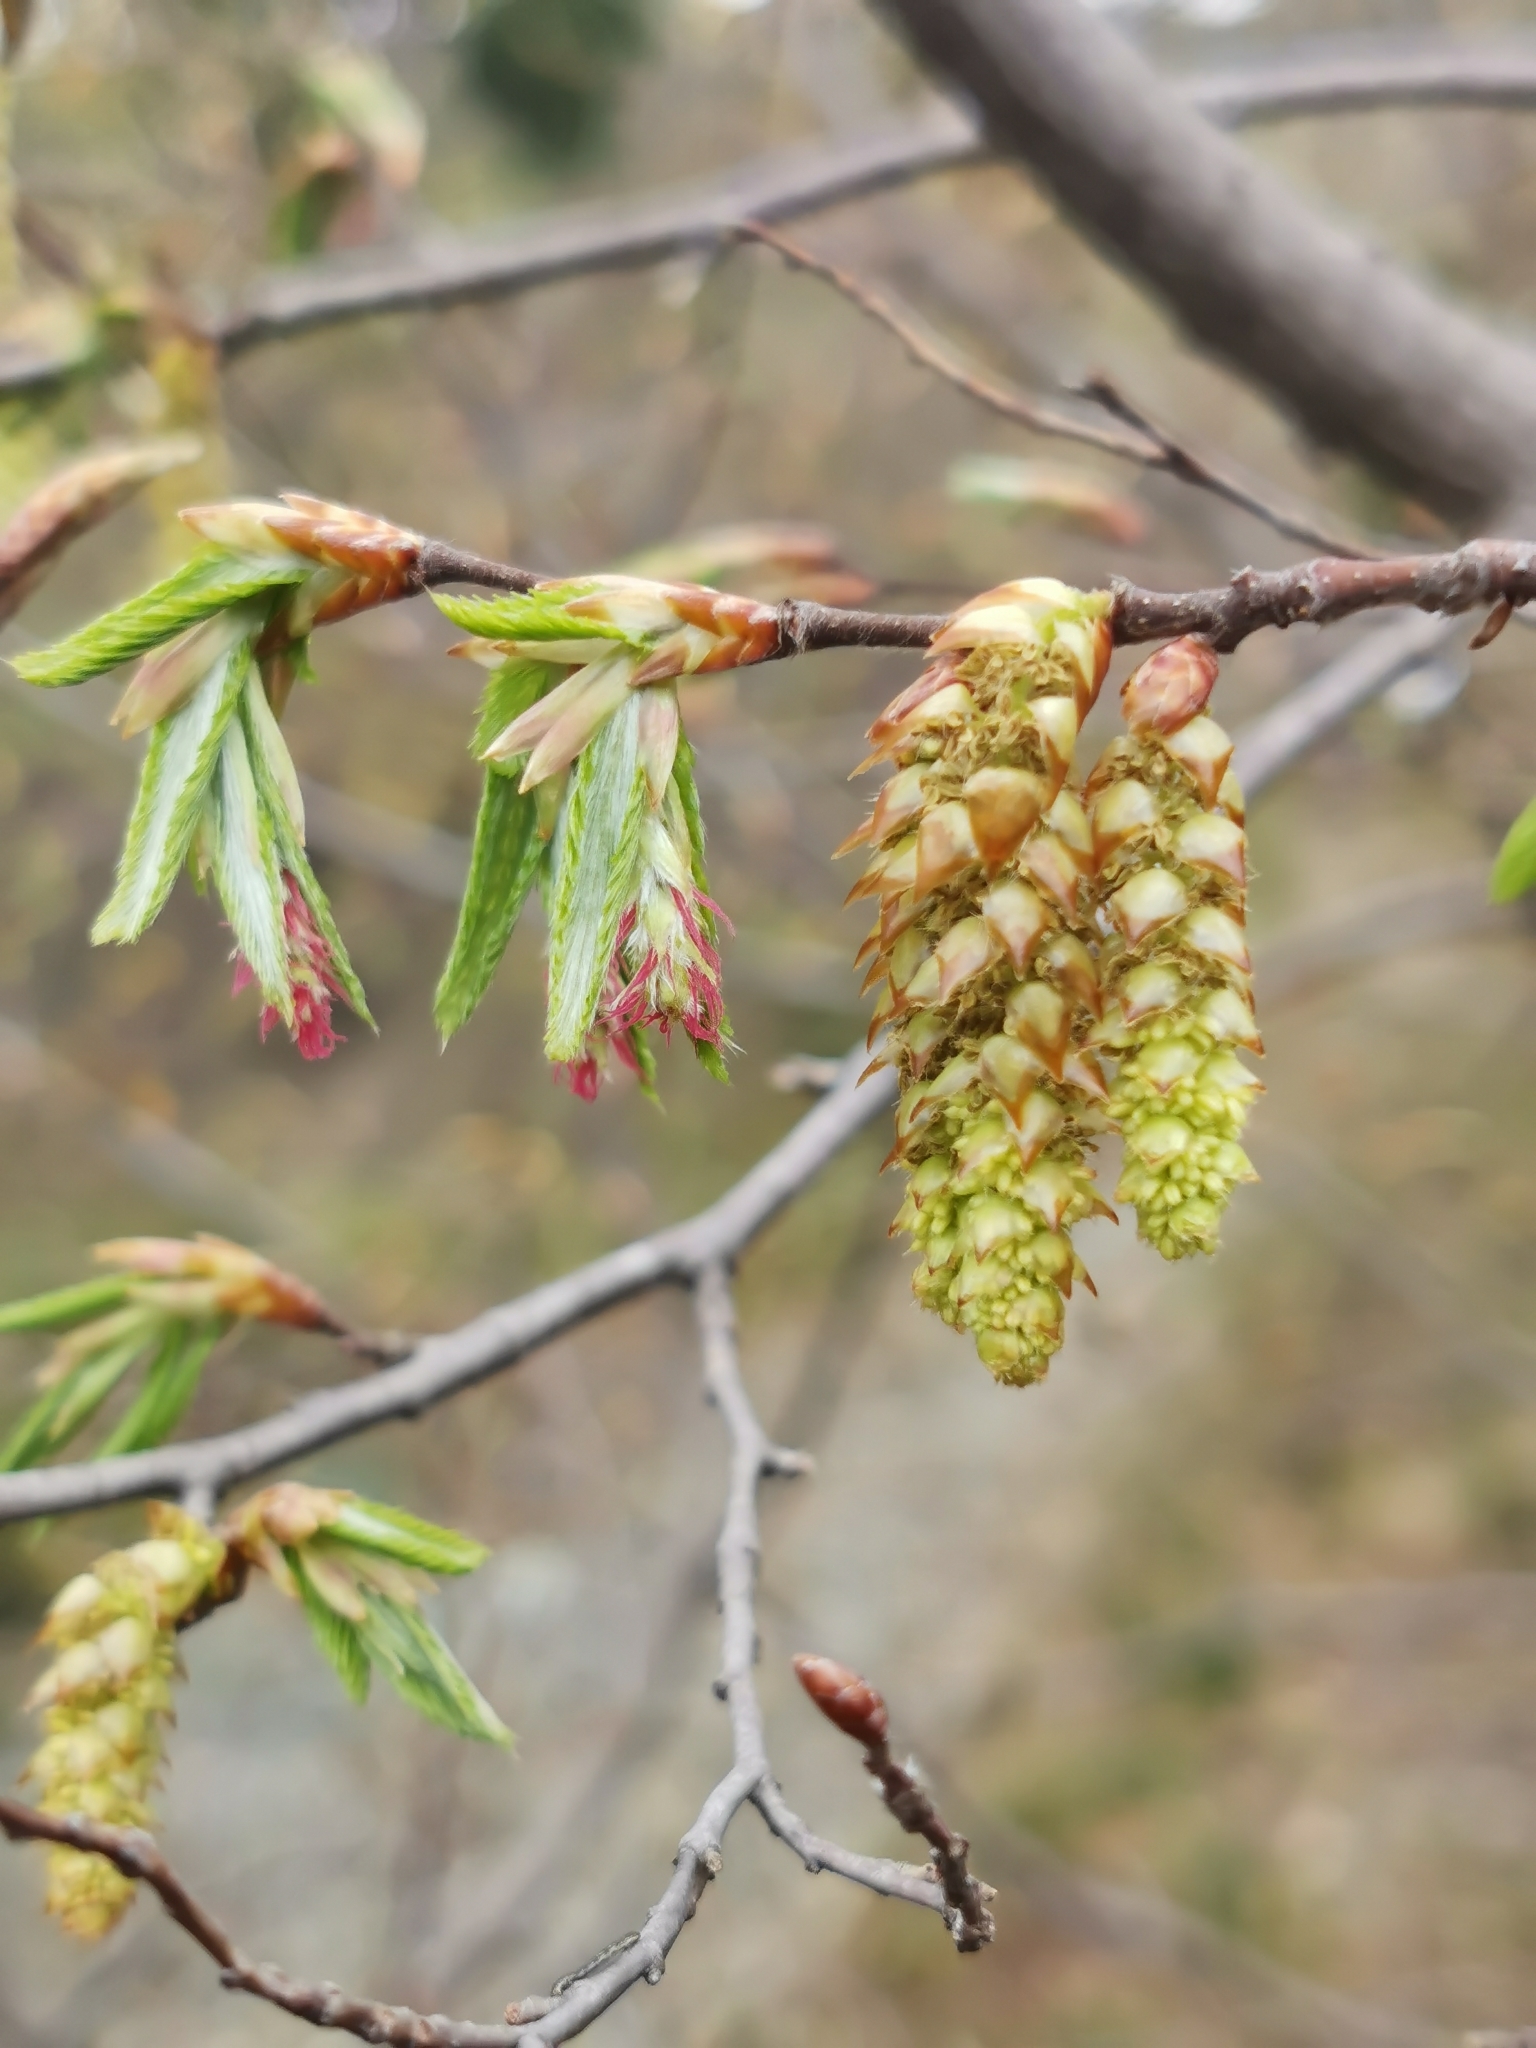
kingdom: Plantae
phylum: Tracheophyta
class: Magnoliopsida
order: Fagales
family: Betulaceae
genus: Carpinus
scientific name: Carpinus orientalis
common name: Eastern hornbeam
